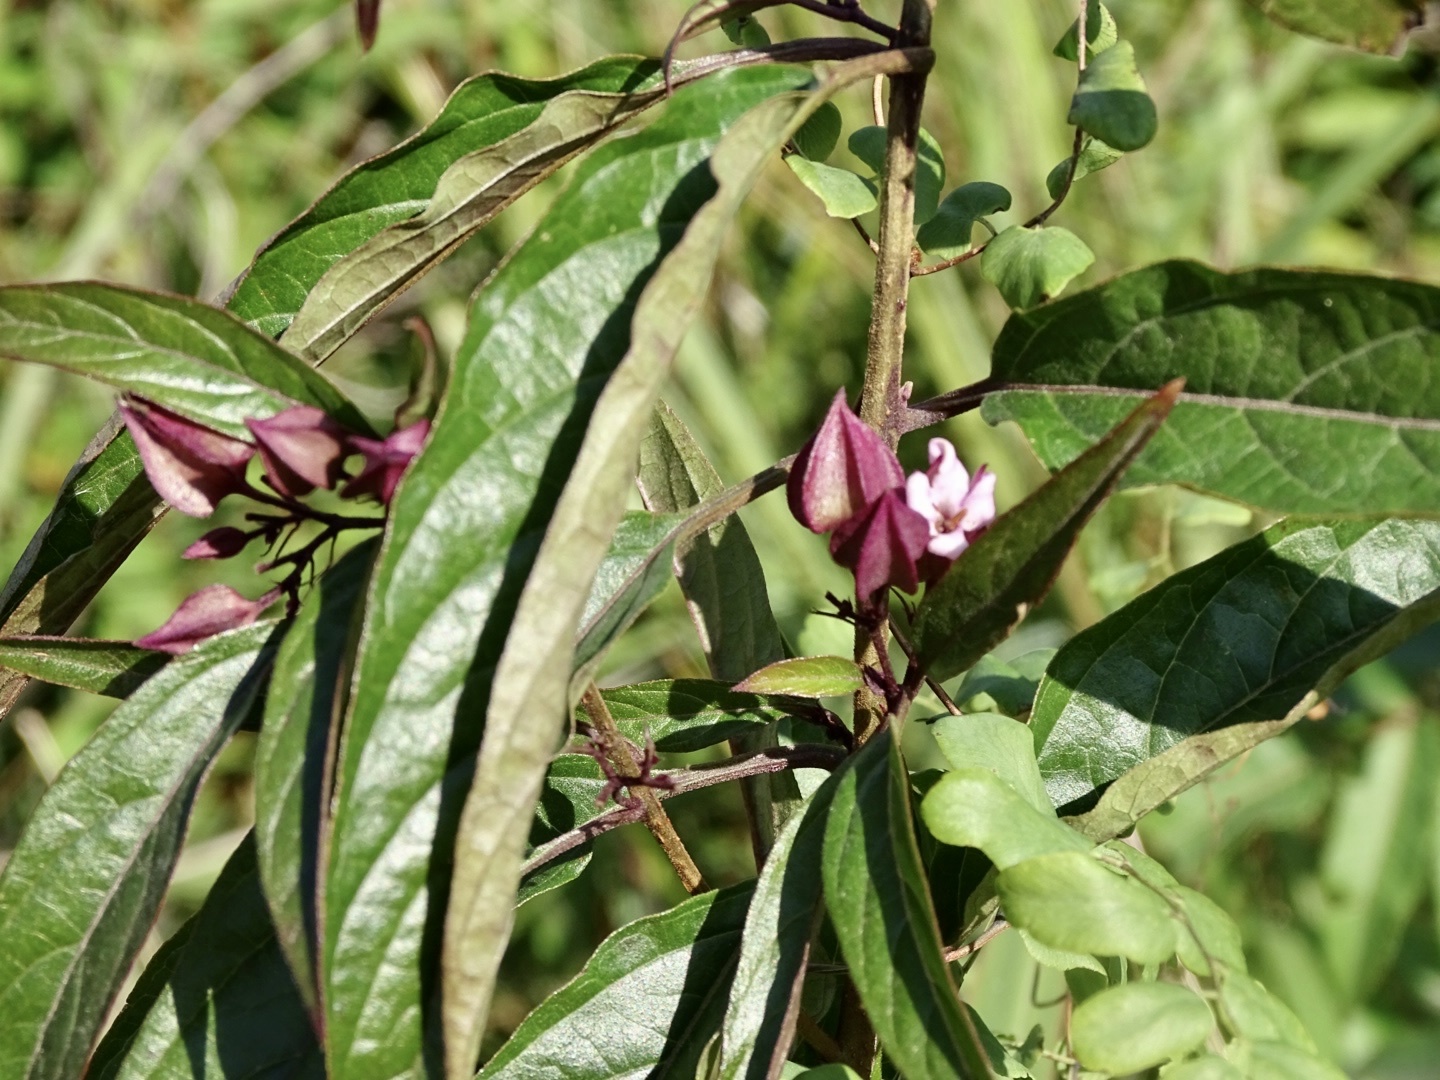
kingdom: Plantae
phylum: Tracheophyta
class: Magnoliopsida
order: Lamiales
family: Lamiaceae
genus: Clerodendrum
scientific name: Clerodendrum fortunatum
